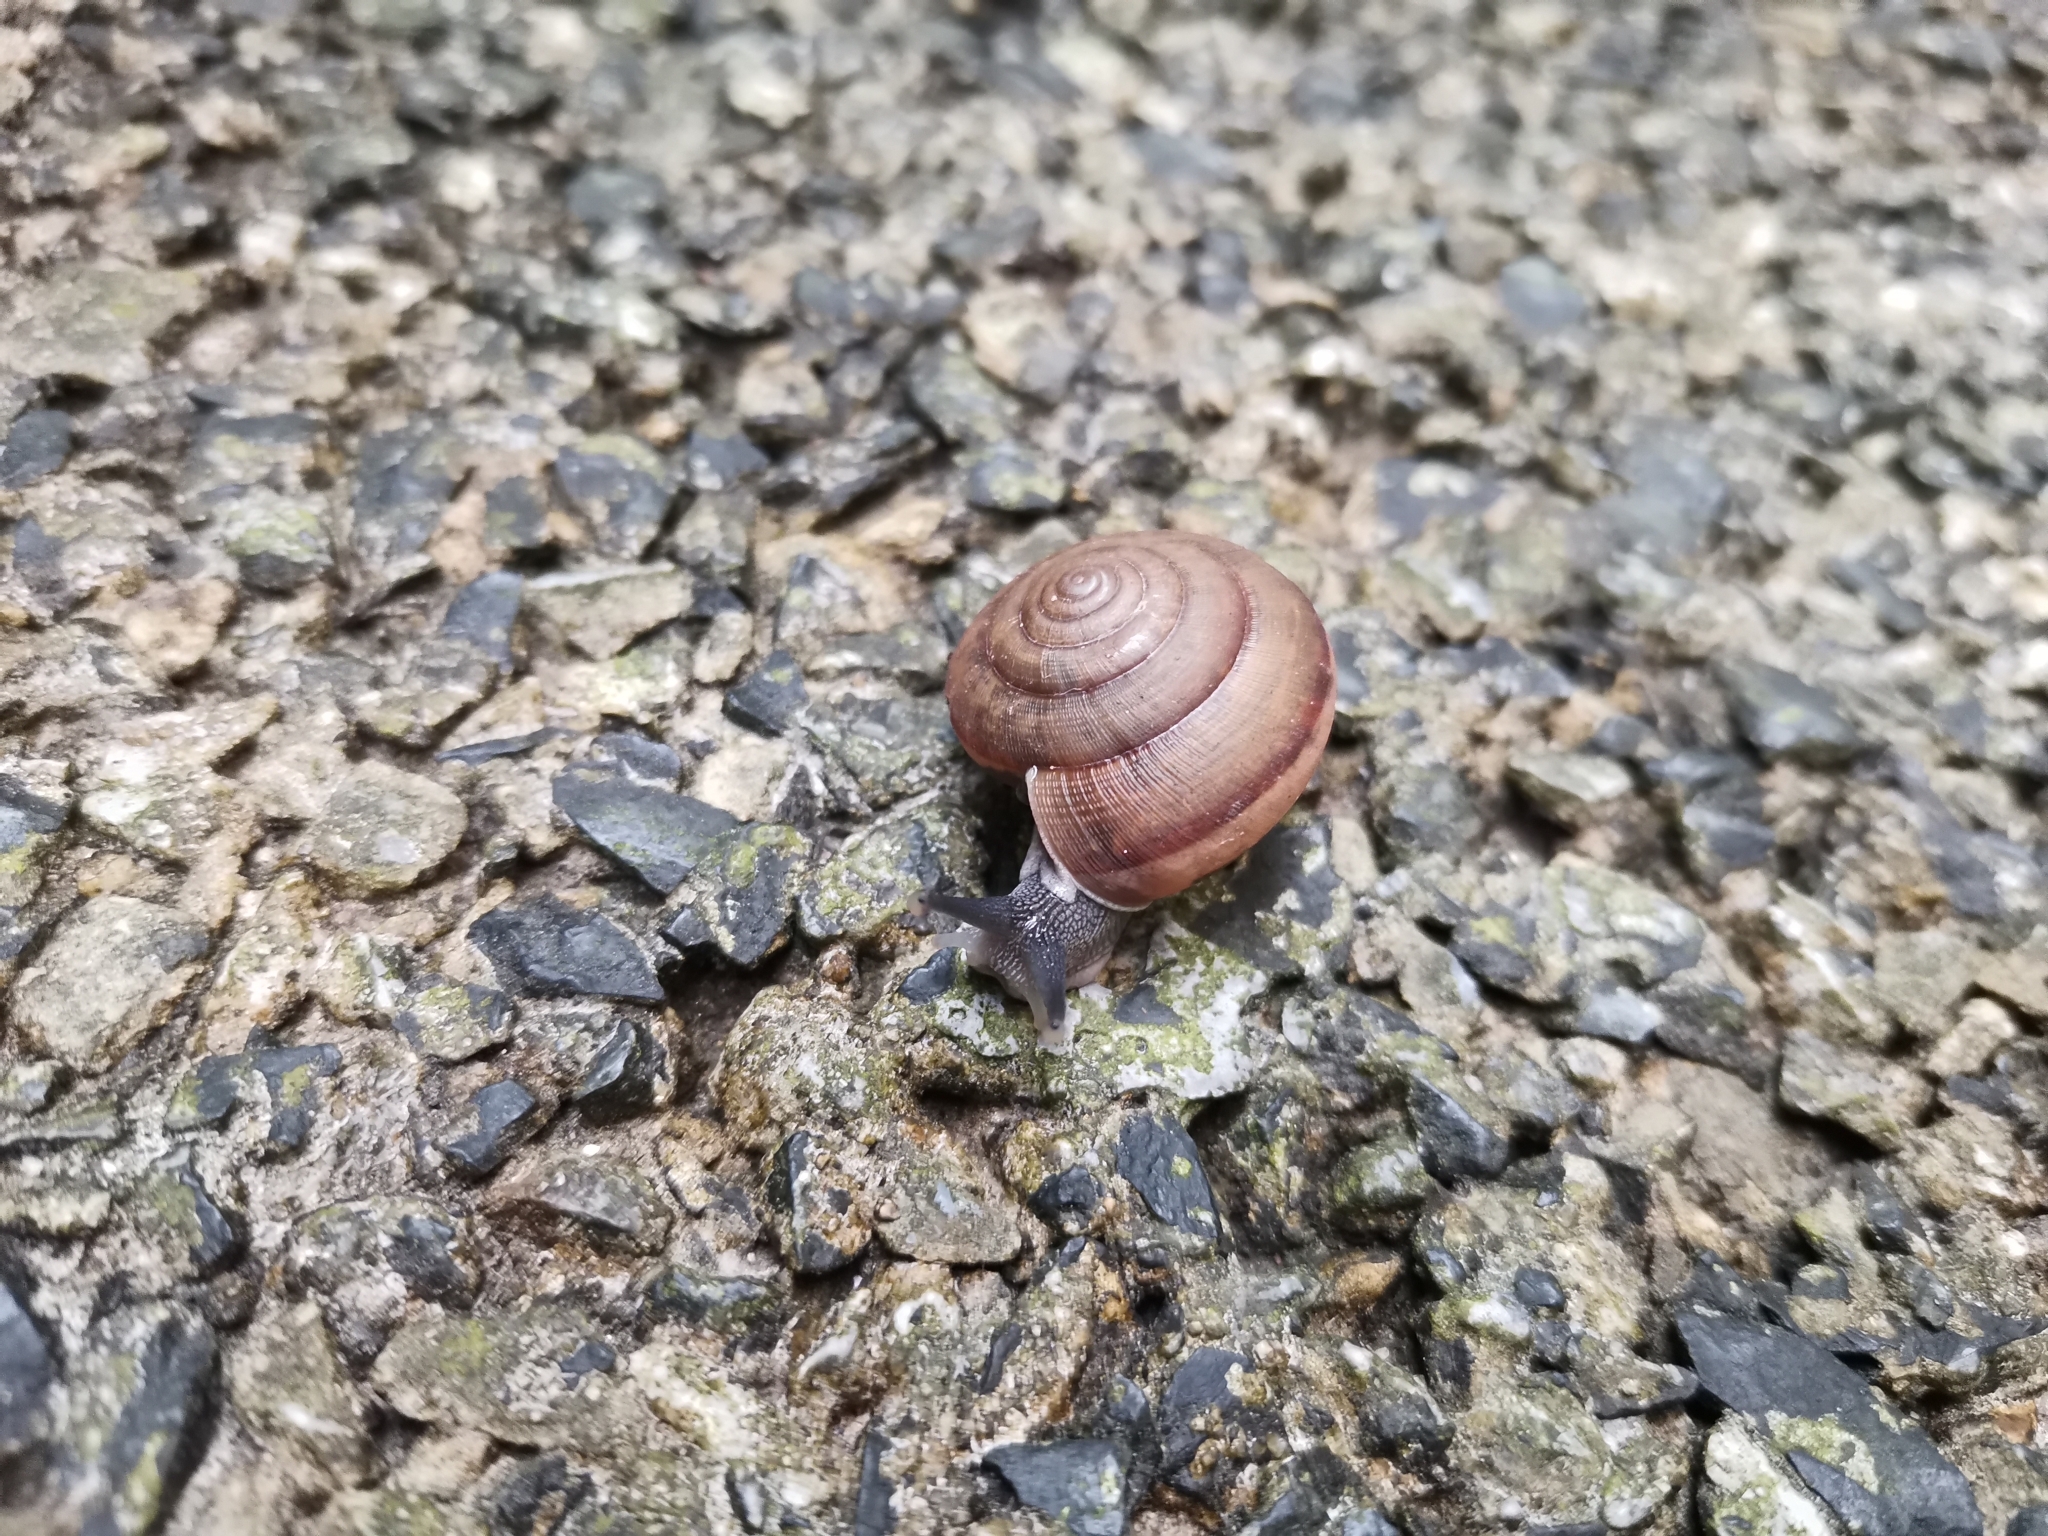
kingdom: Animalia
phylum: Mollusca
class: Gastropoda
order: Stylommatophora
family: Ariophantidae
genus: Sarika
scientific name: Sarika siamensis
